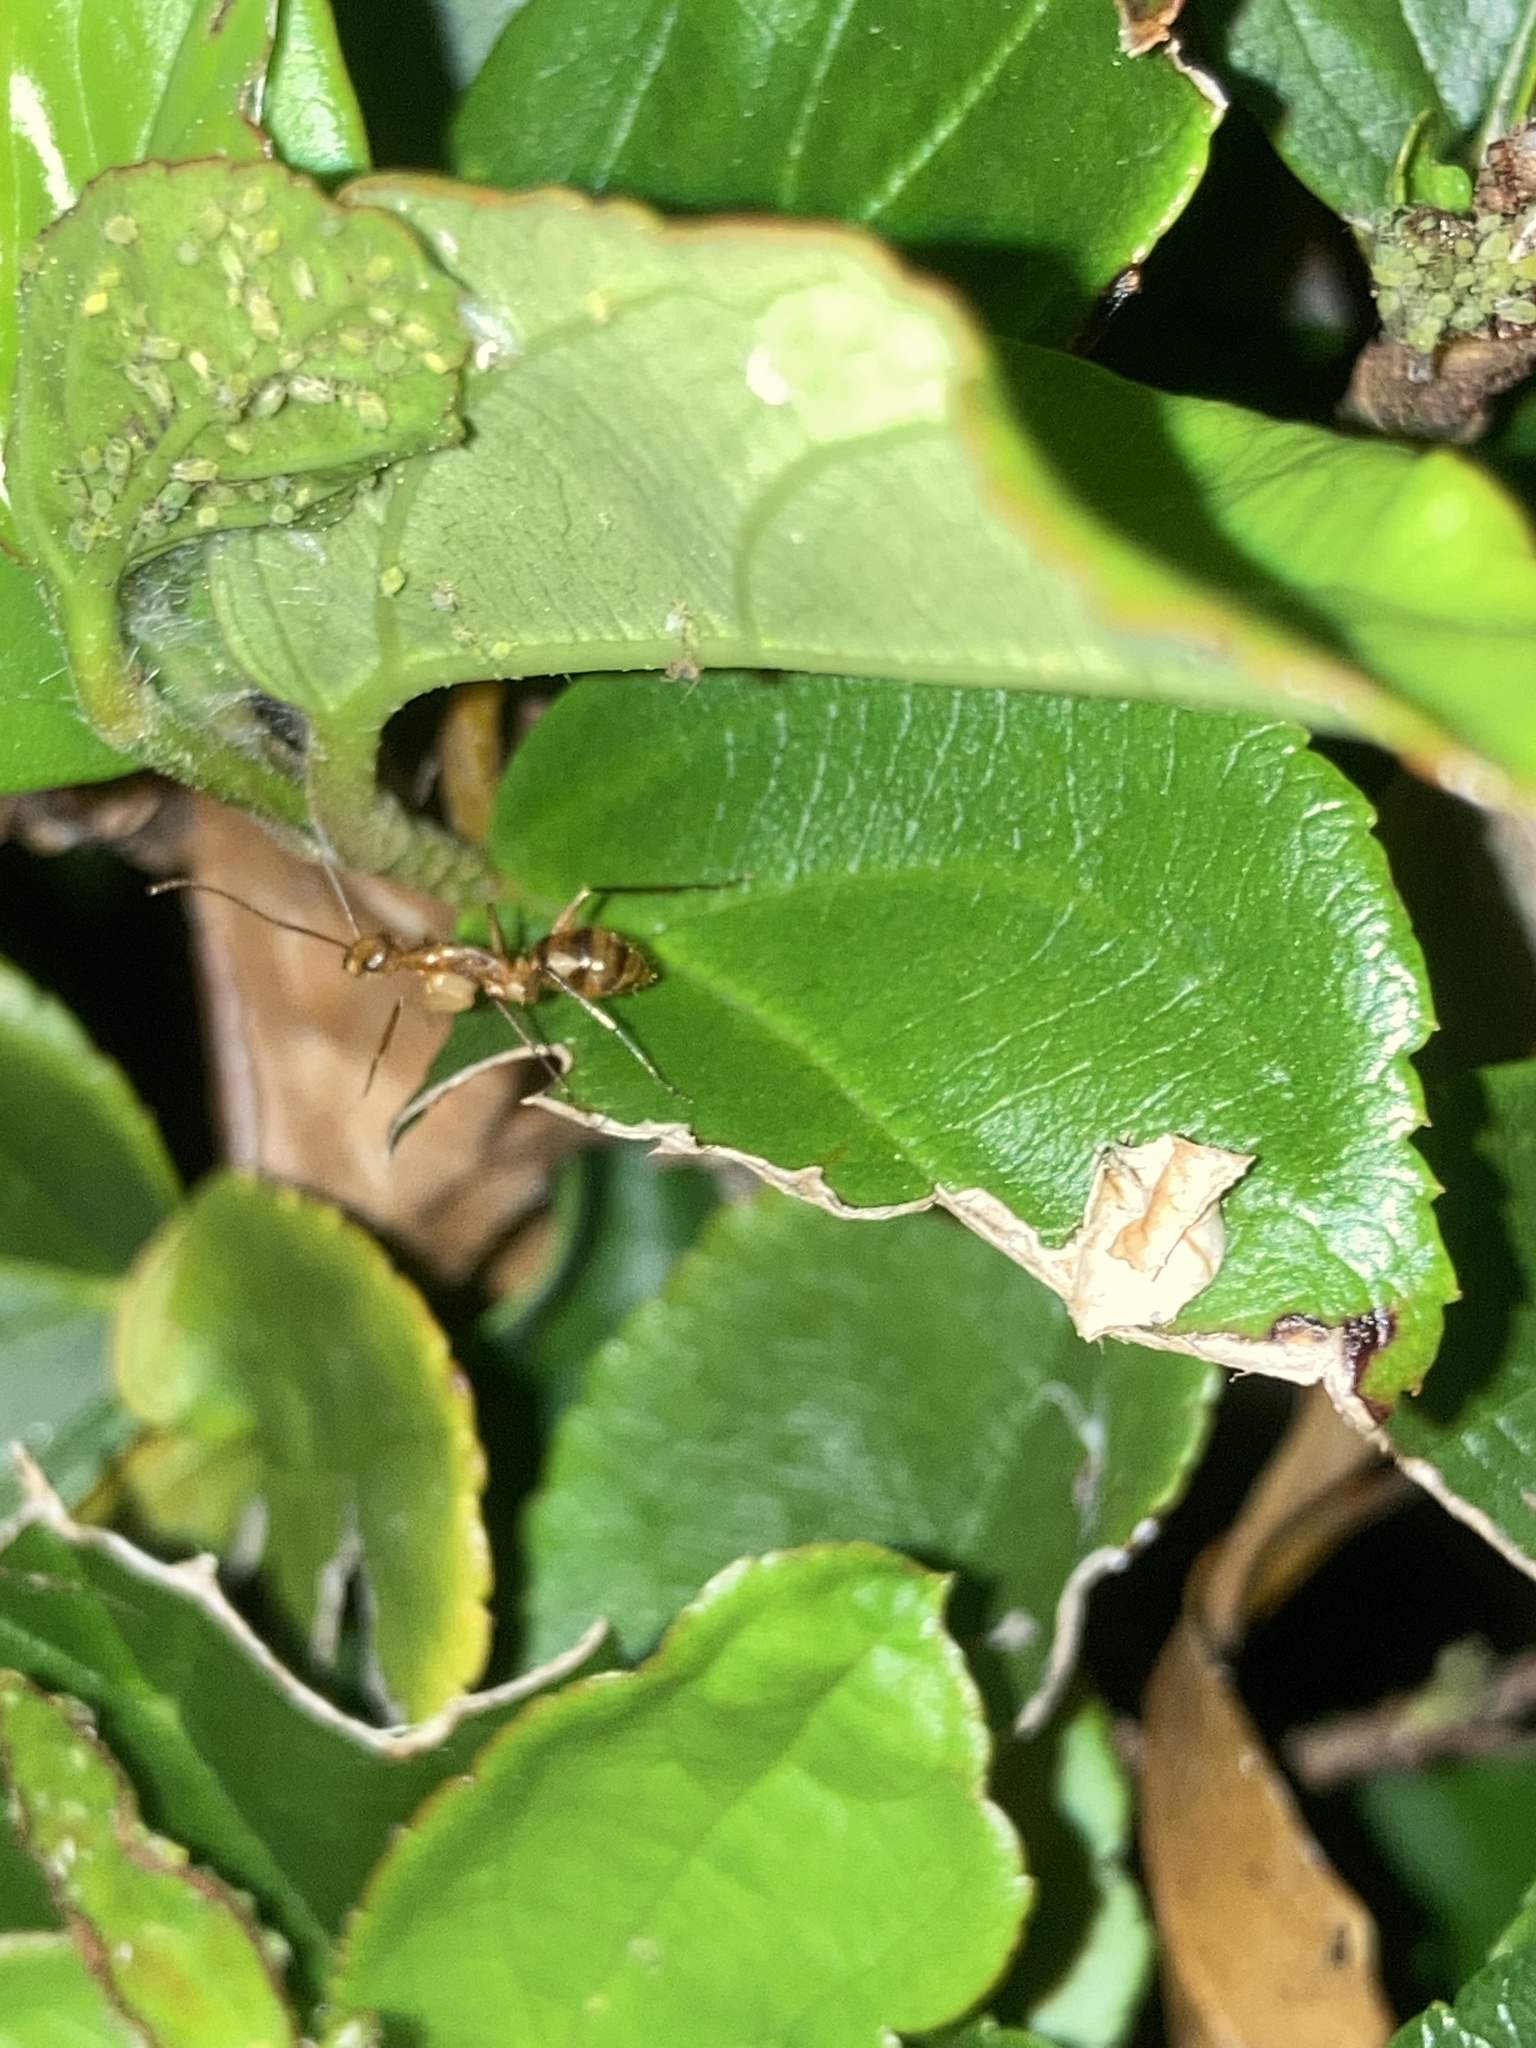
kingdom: Animalia
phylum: Arthropoda
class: Insecta
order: Hymenoptera
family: Formicidae
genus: Camponotus
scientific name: Camponotus
